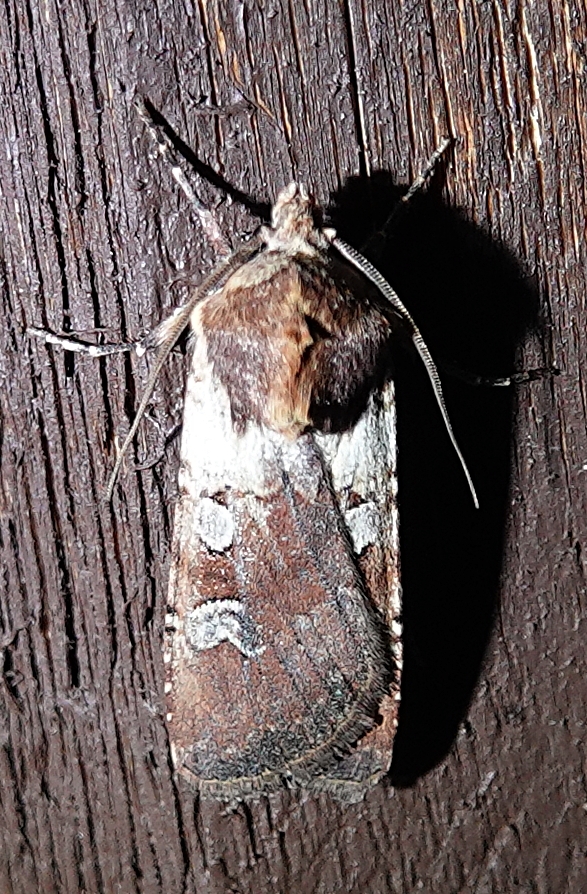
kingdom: Animalia
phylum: Arthropoda
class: Insecta
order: Lepidoptera
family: Noctuidae
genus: Euxoa
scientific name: Euxoa basalis
